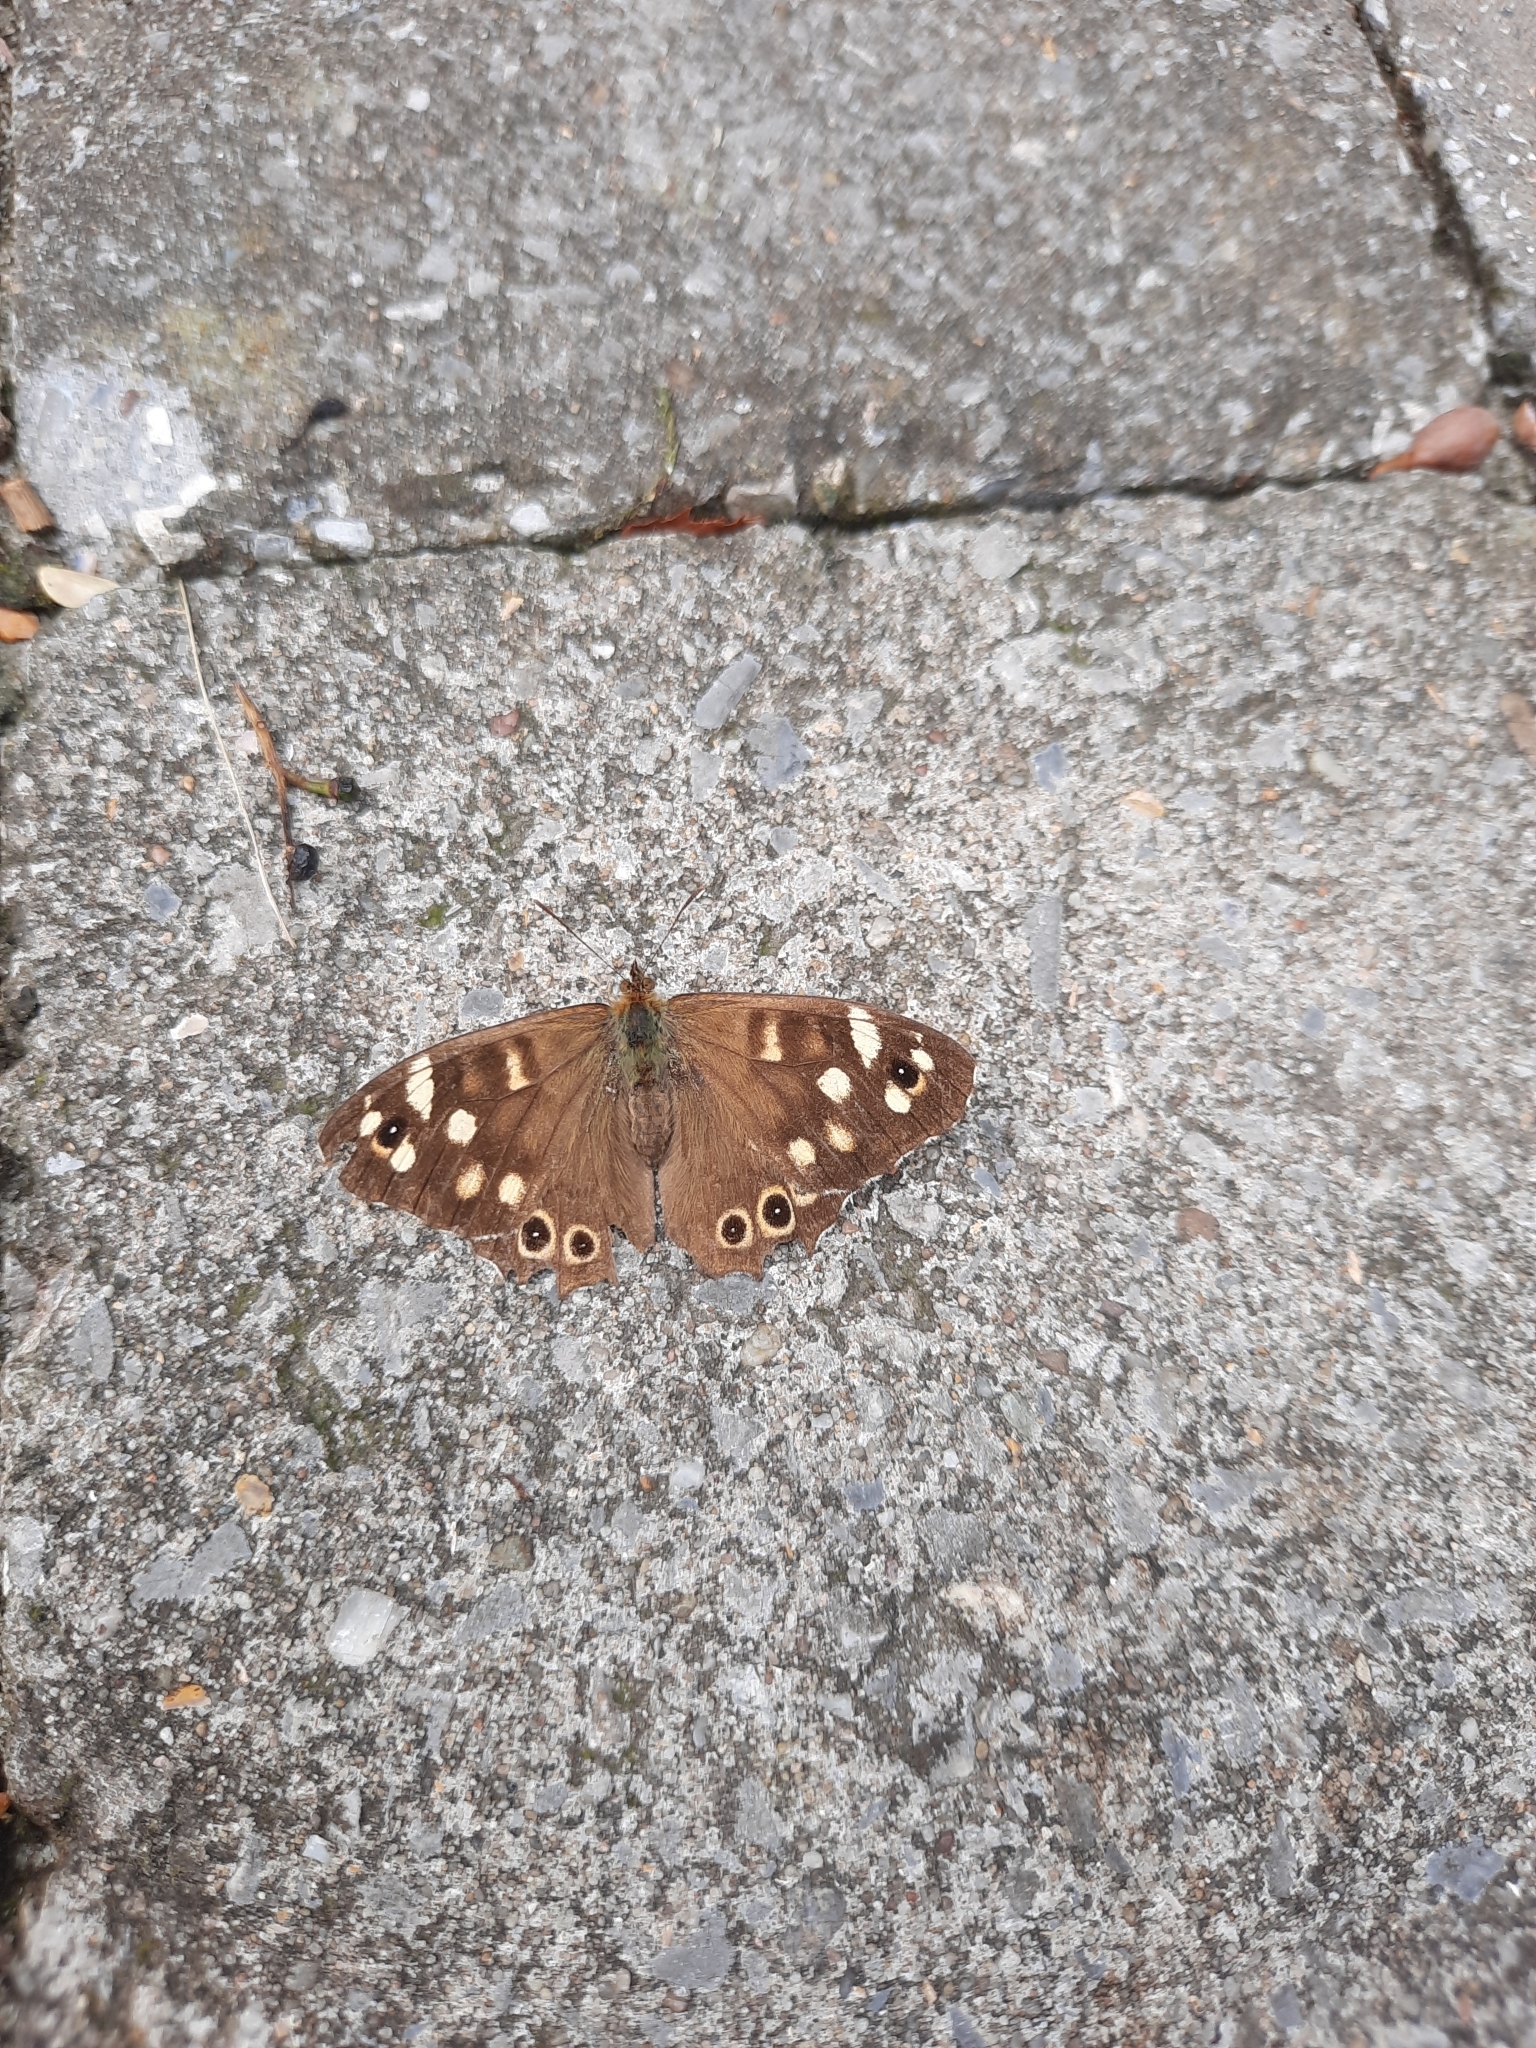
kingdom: Animalia
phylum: Arthropoda
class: Insecta
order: Lepidoptera
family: Nymphalidae
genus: Pararge
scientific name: Pararge aegeria
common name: Speckled wood
